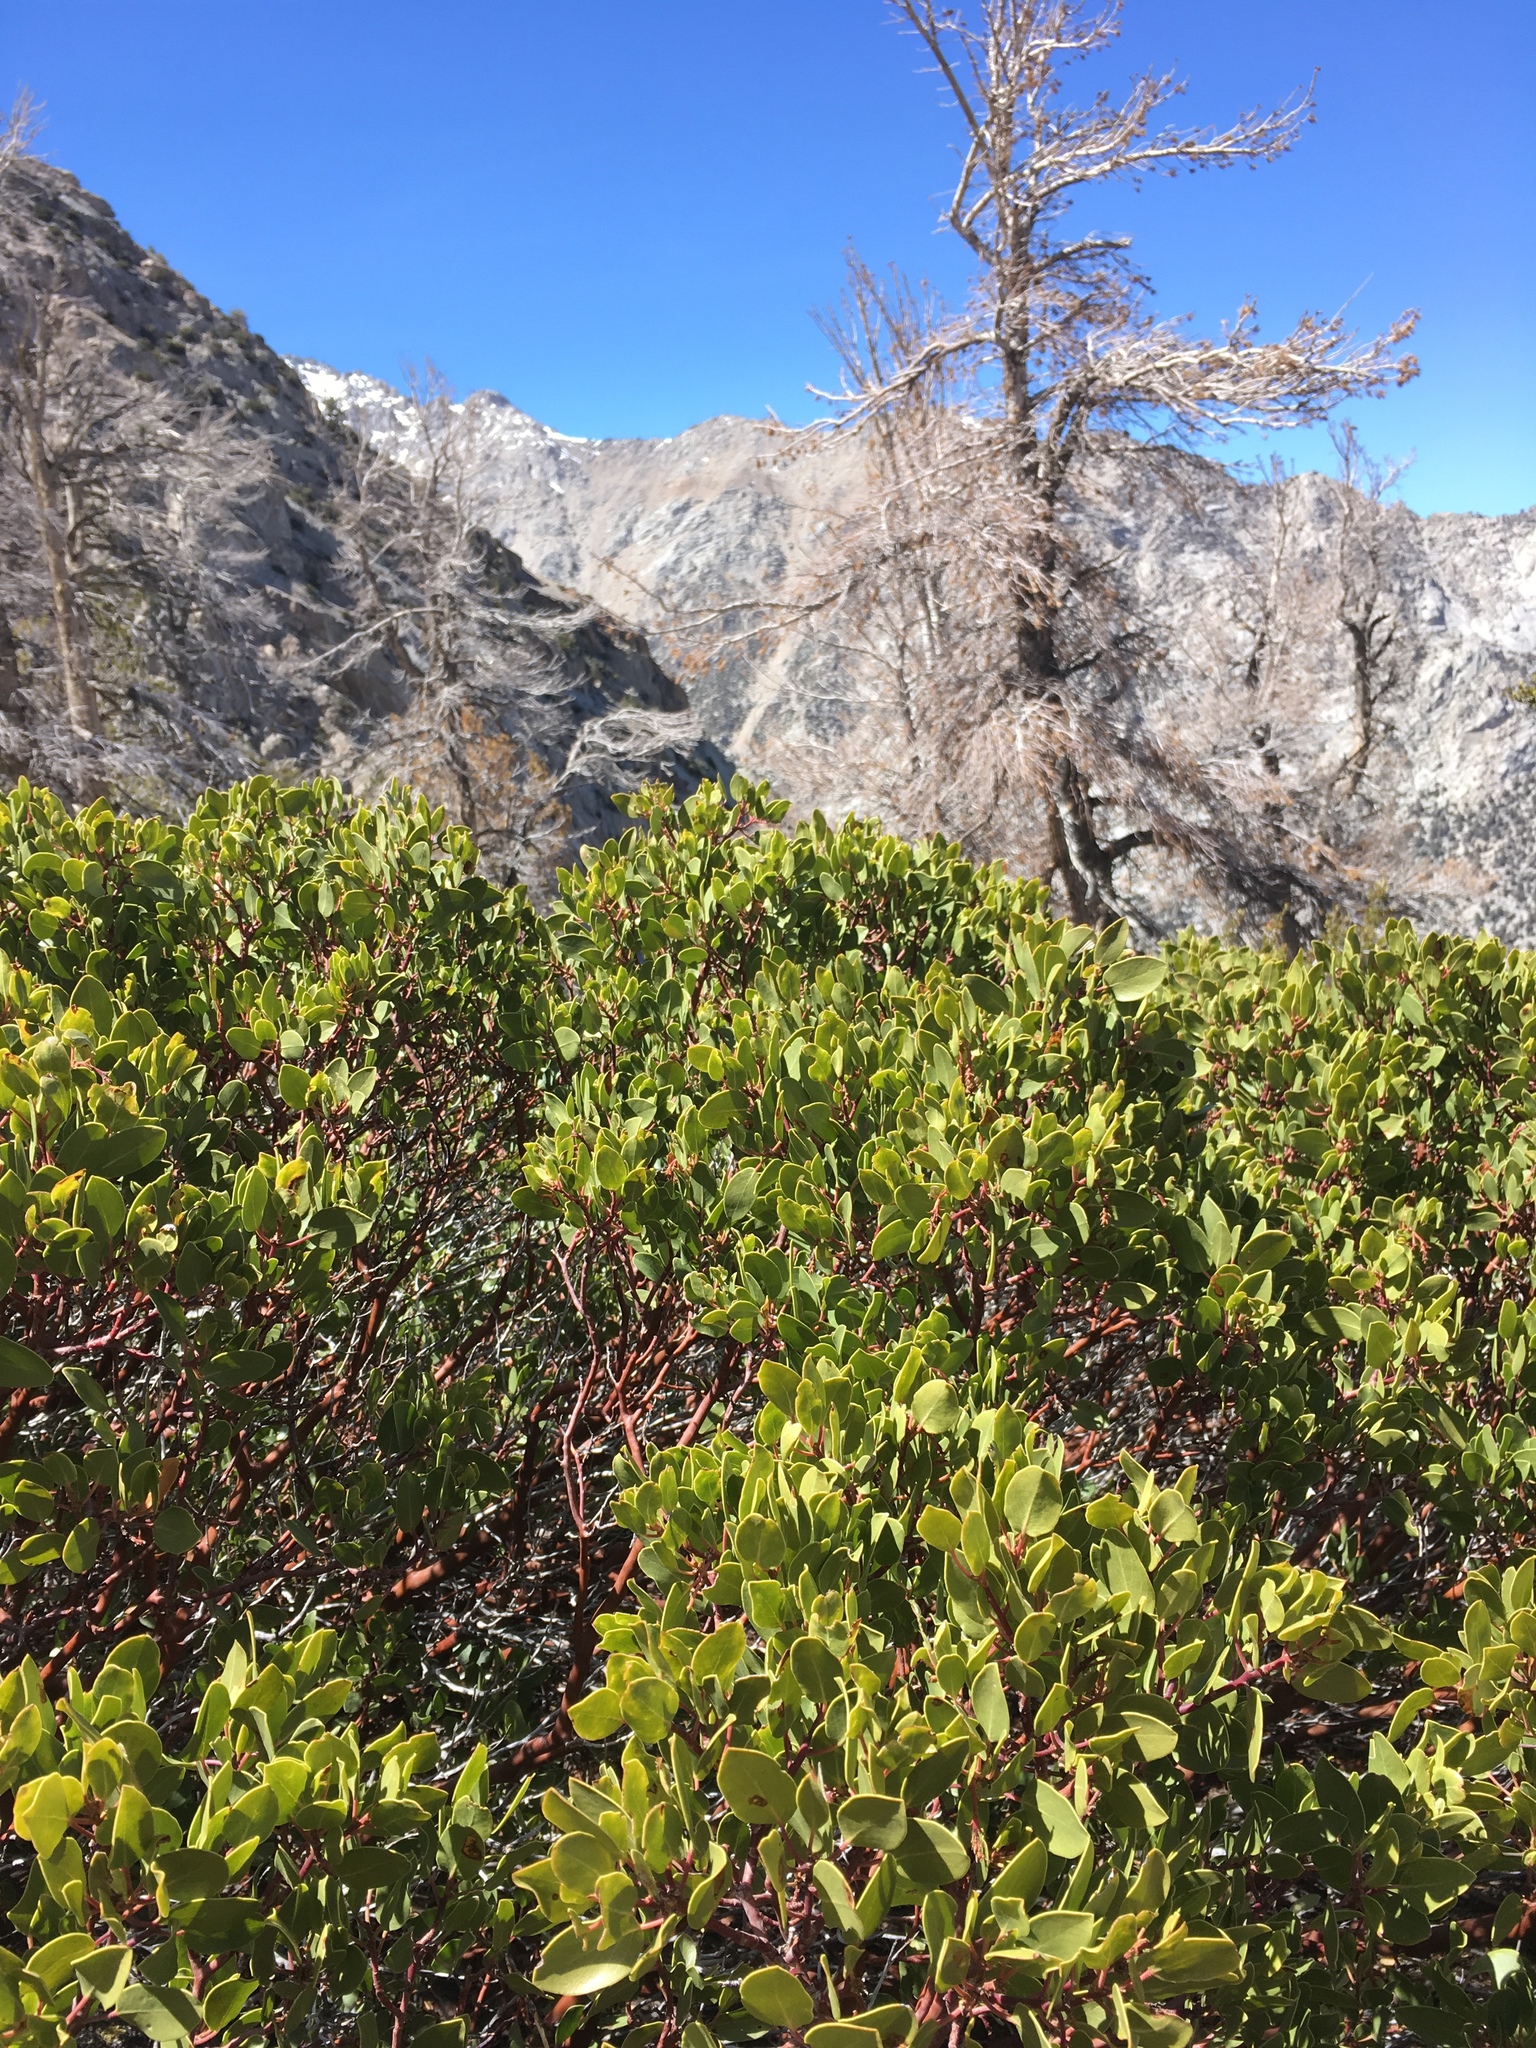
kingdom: Plantae
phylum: Tracheophyta
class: Magnoliopsida
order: Ericales
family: Ericaceae
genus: Arctostaphylos
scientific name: Arctostaphylos patula
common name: Green-leaf manzanita
